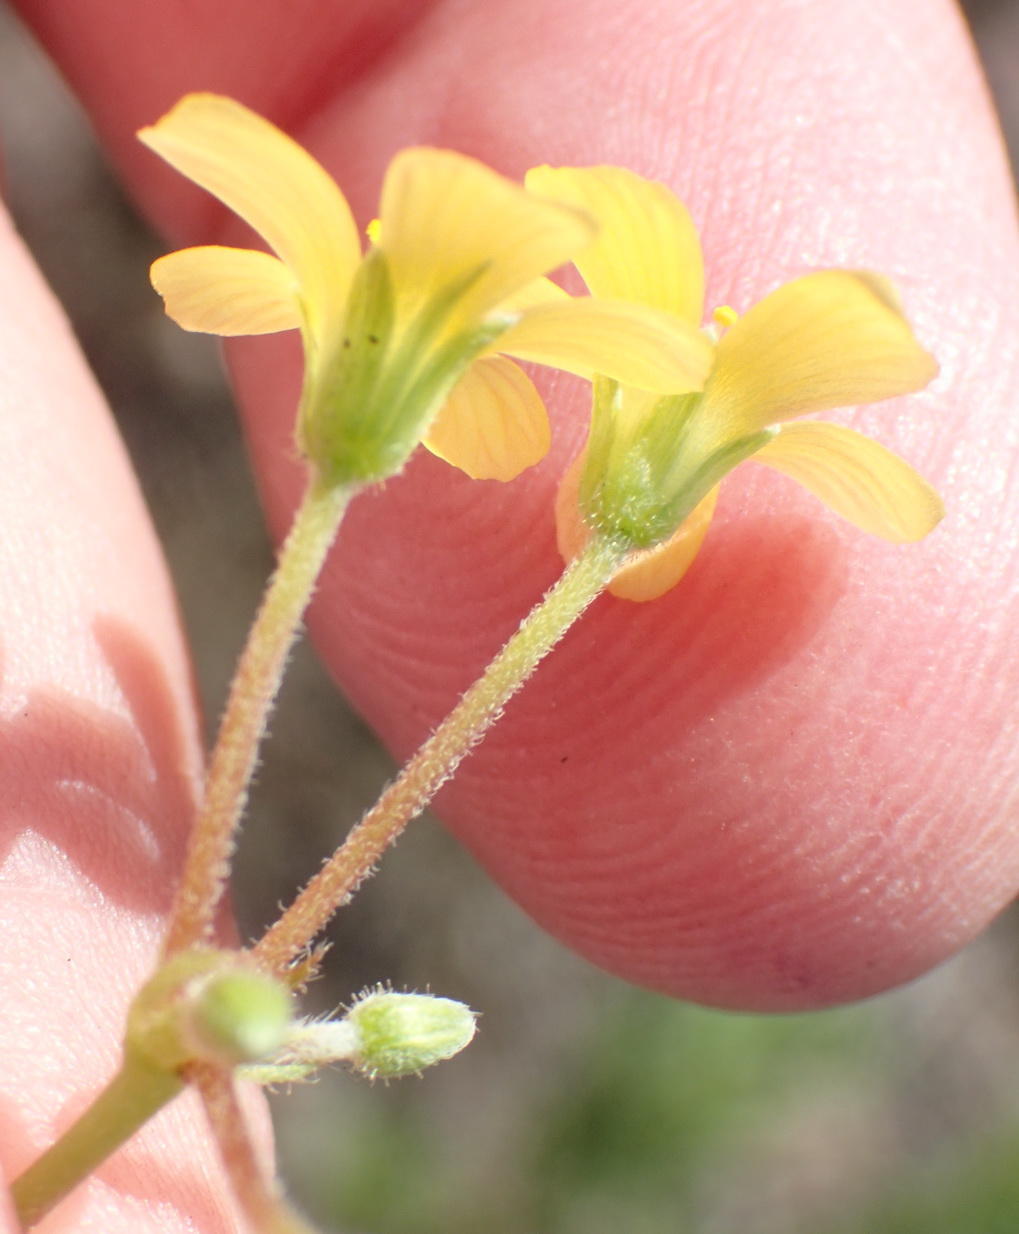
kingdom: Plantae
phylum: Tracheophyta
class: Magnoliopsida
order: Oxalidales
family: Oxalidaceae
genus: Oxalis
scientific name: Oxalis corniculata
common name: Procumbent yellow-sorrel
